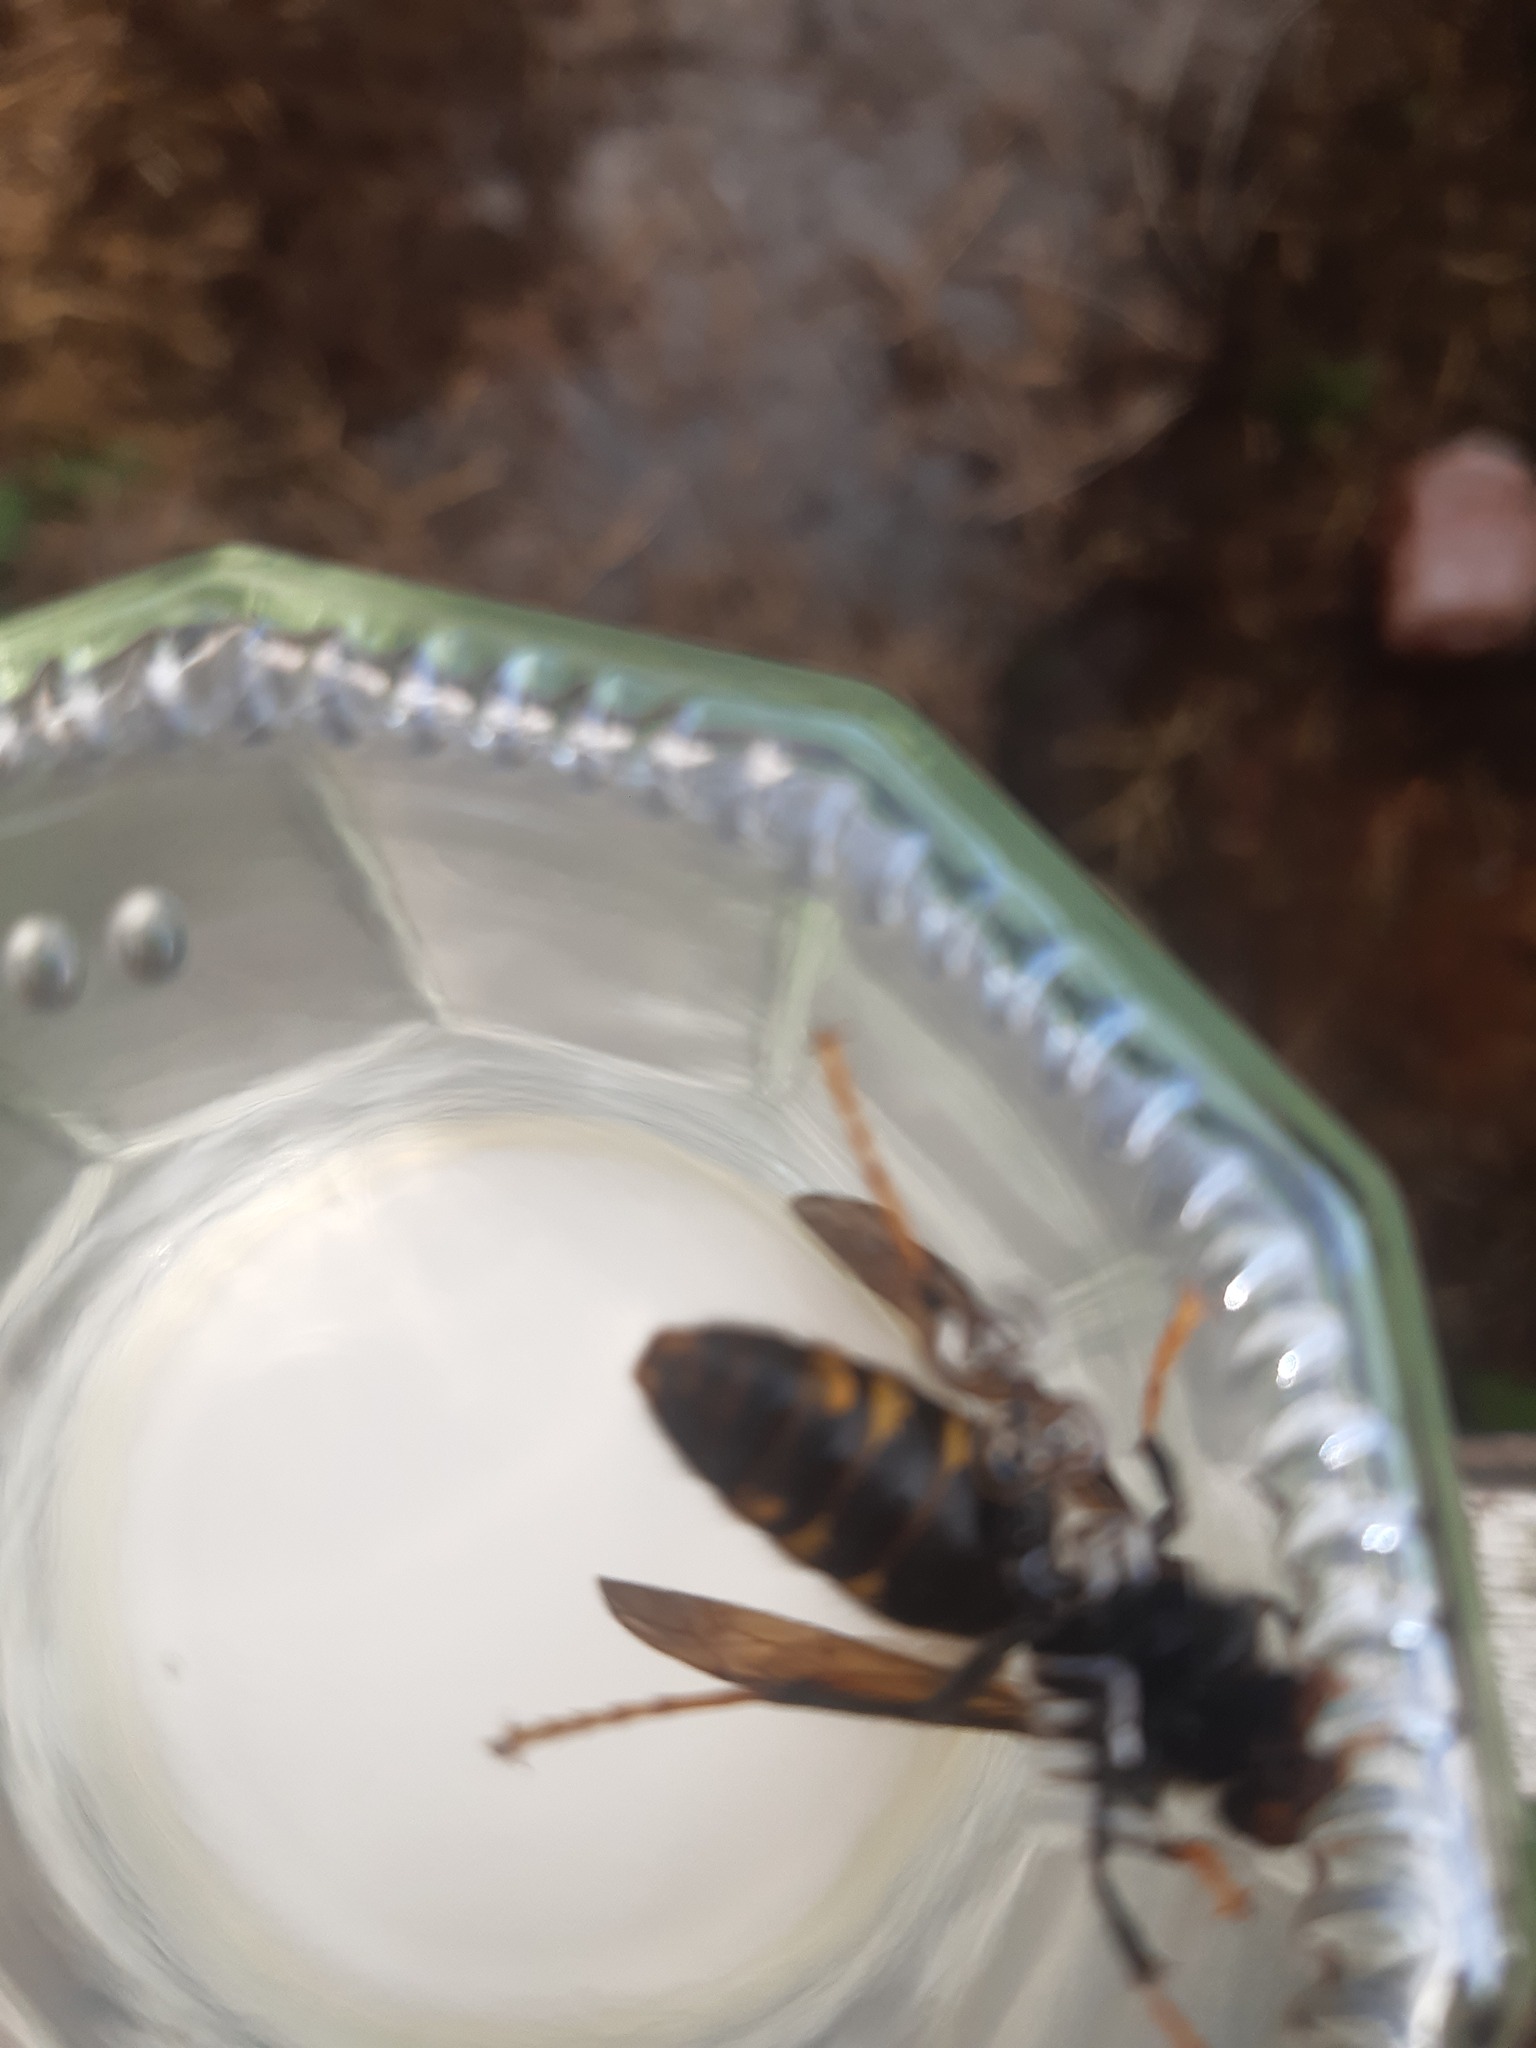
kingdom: Animalia
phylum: Arthropoda
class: Insecta
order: Hymenoptera
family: Vespidae
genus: Vespa
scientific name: Vespa velutina
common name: Asian hornet
